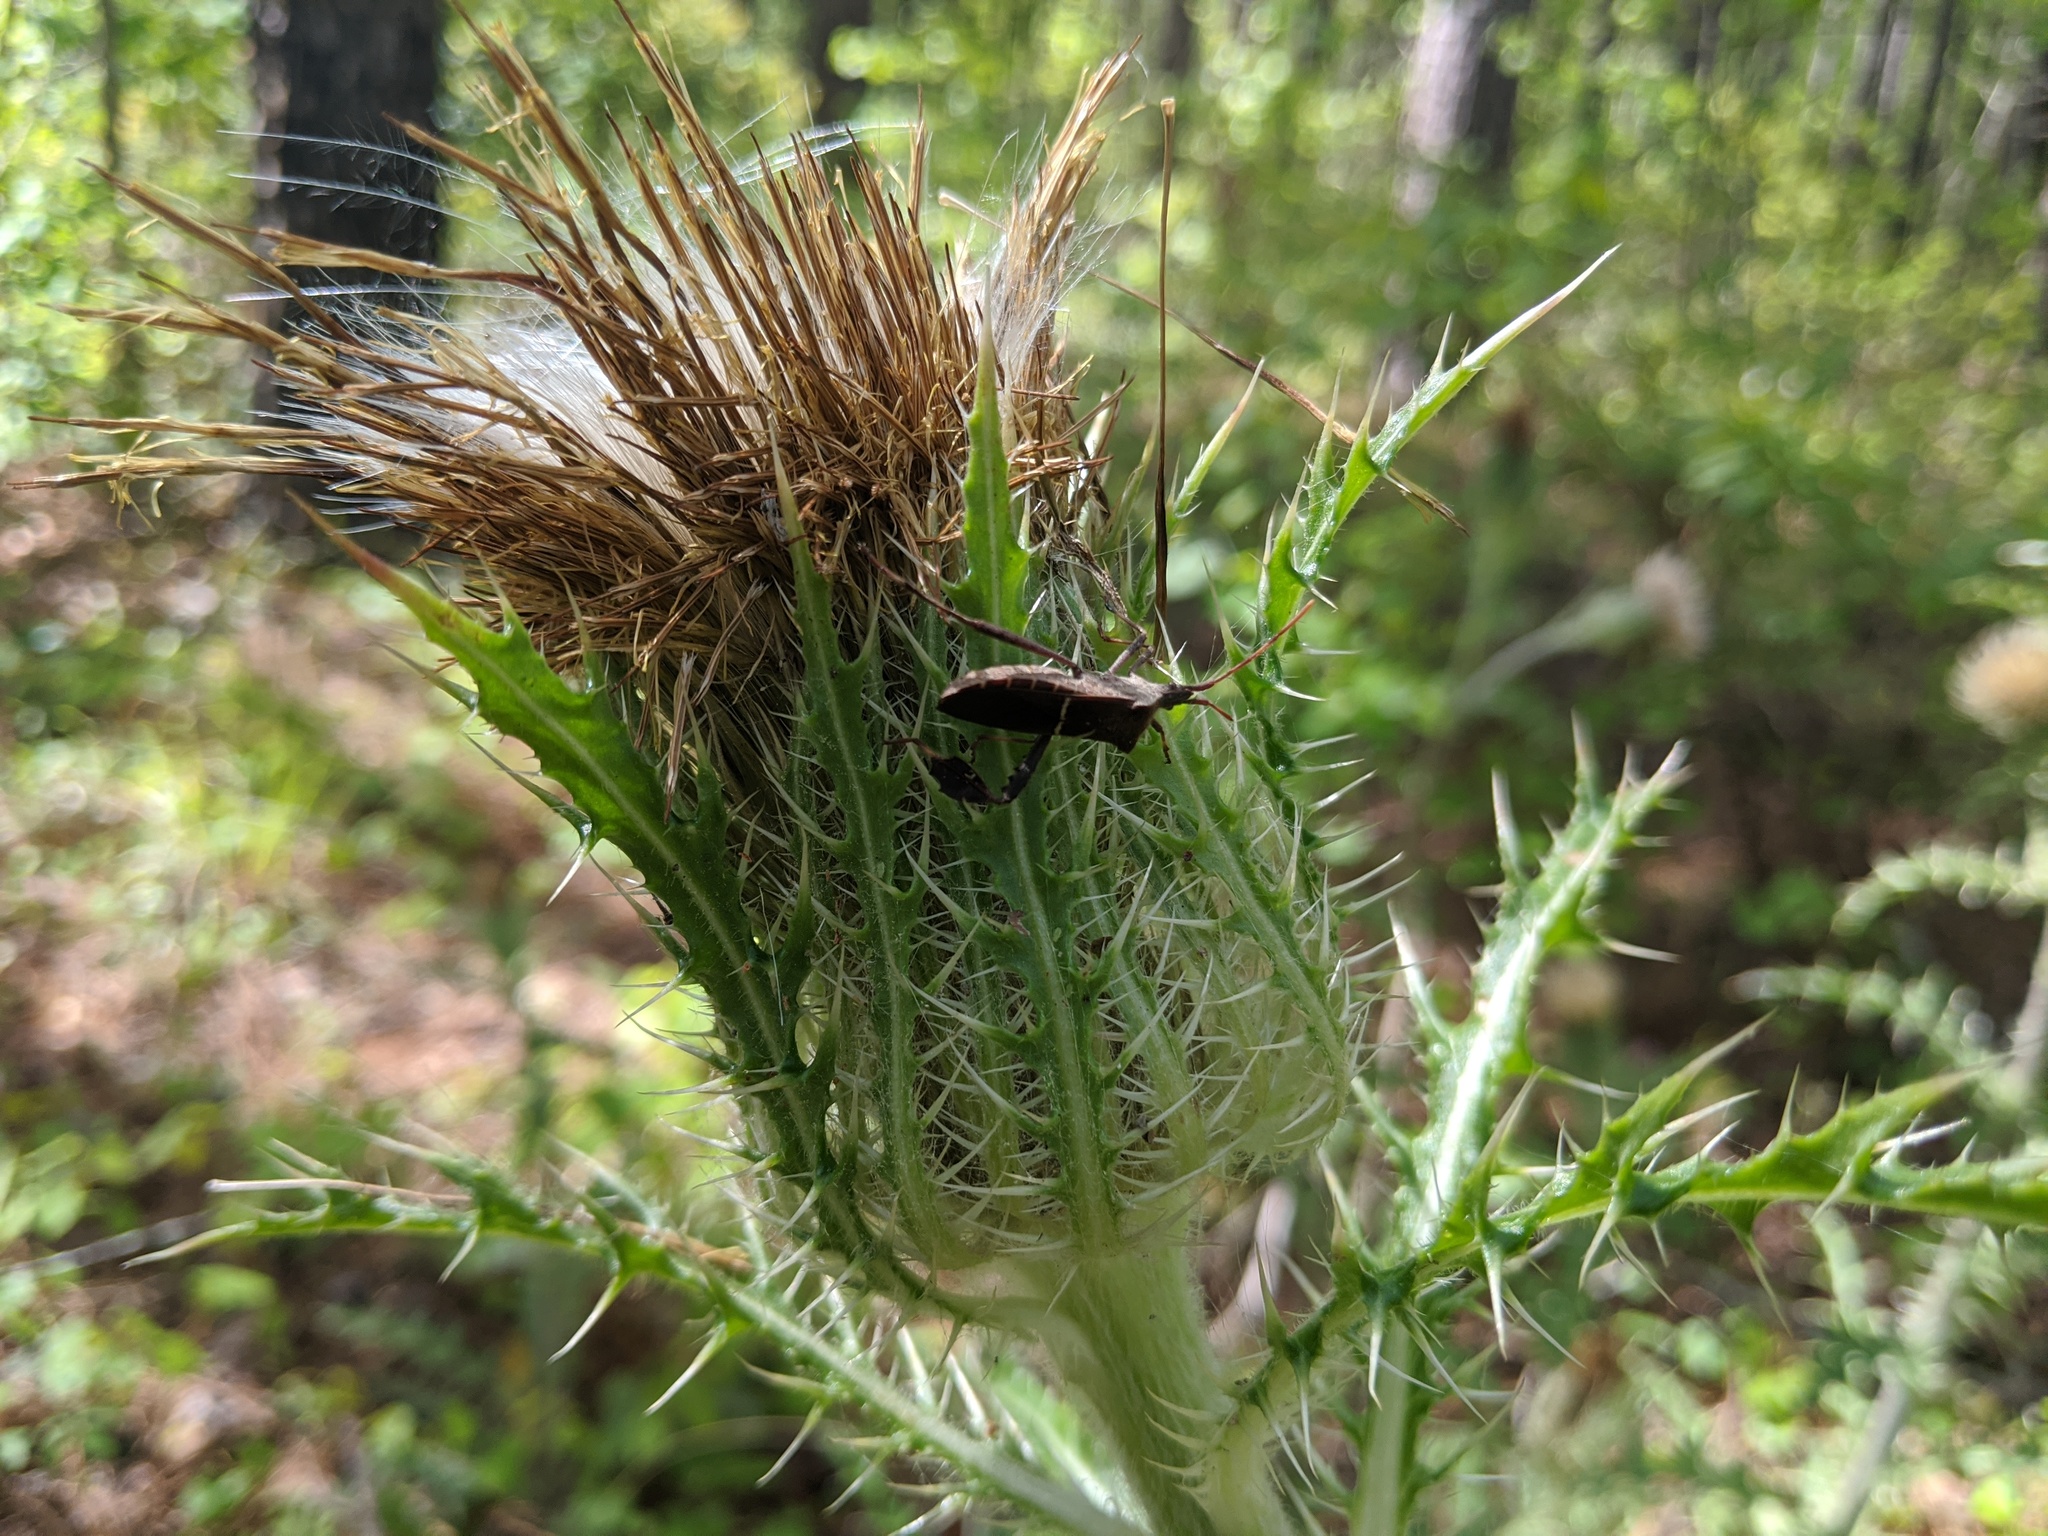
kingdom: Animalia
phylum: Arthropoda
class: Insecta
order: Hemiptera
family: Coreidae
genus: Leptoglossus
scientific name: Leptoglossus phyllopus
